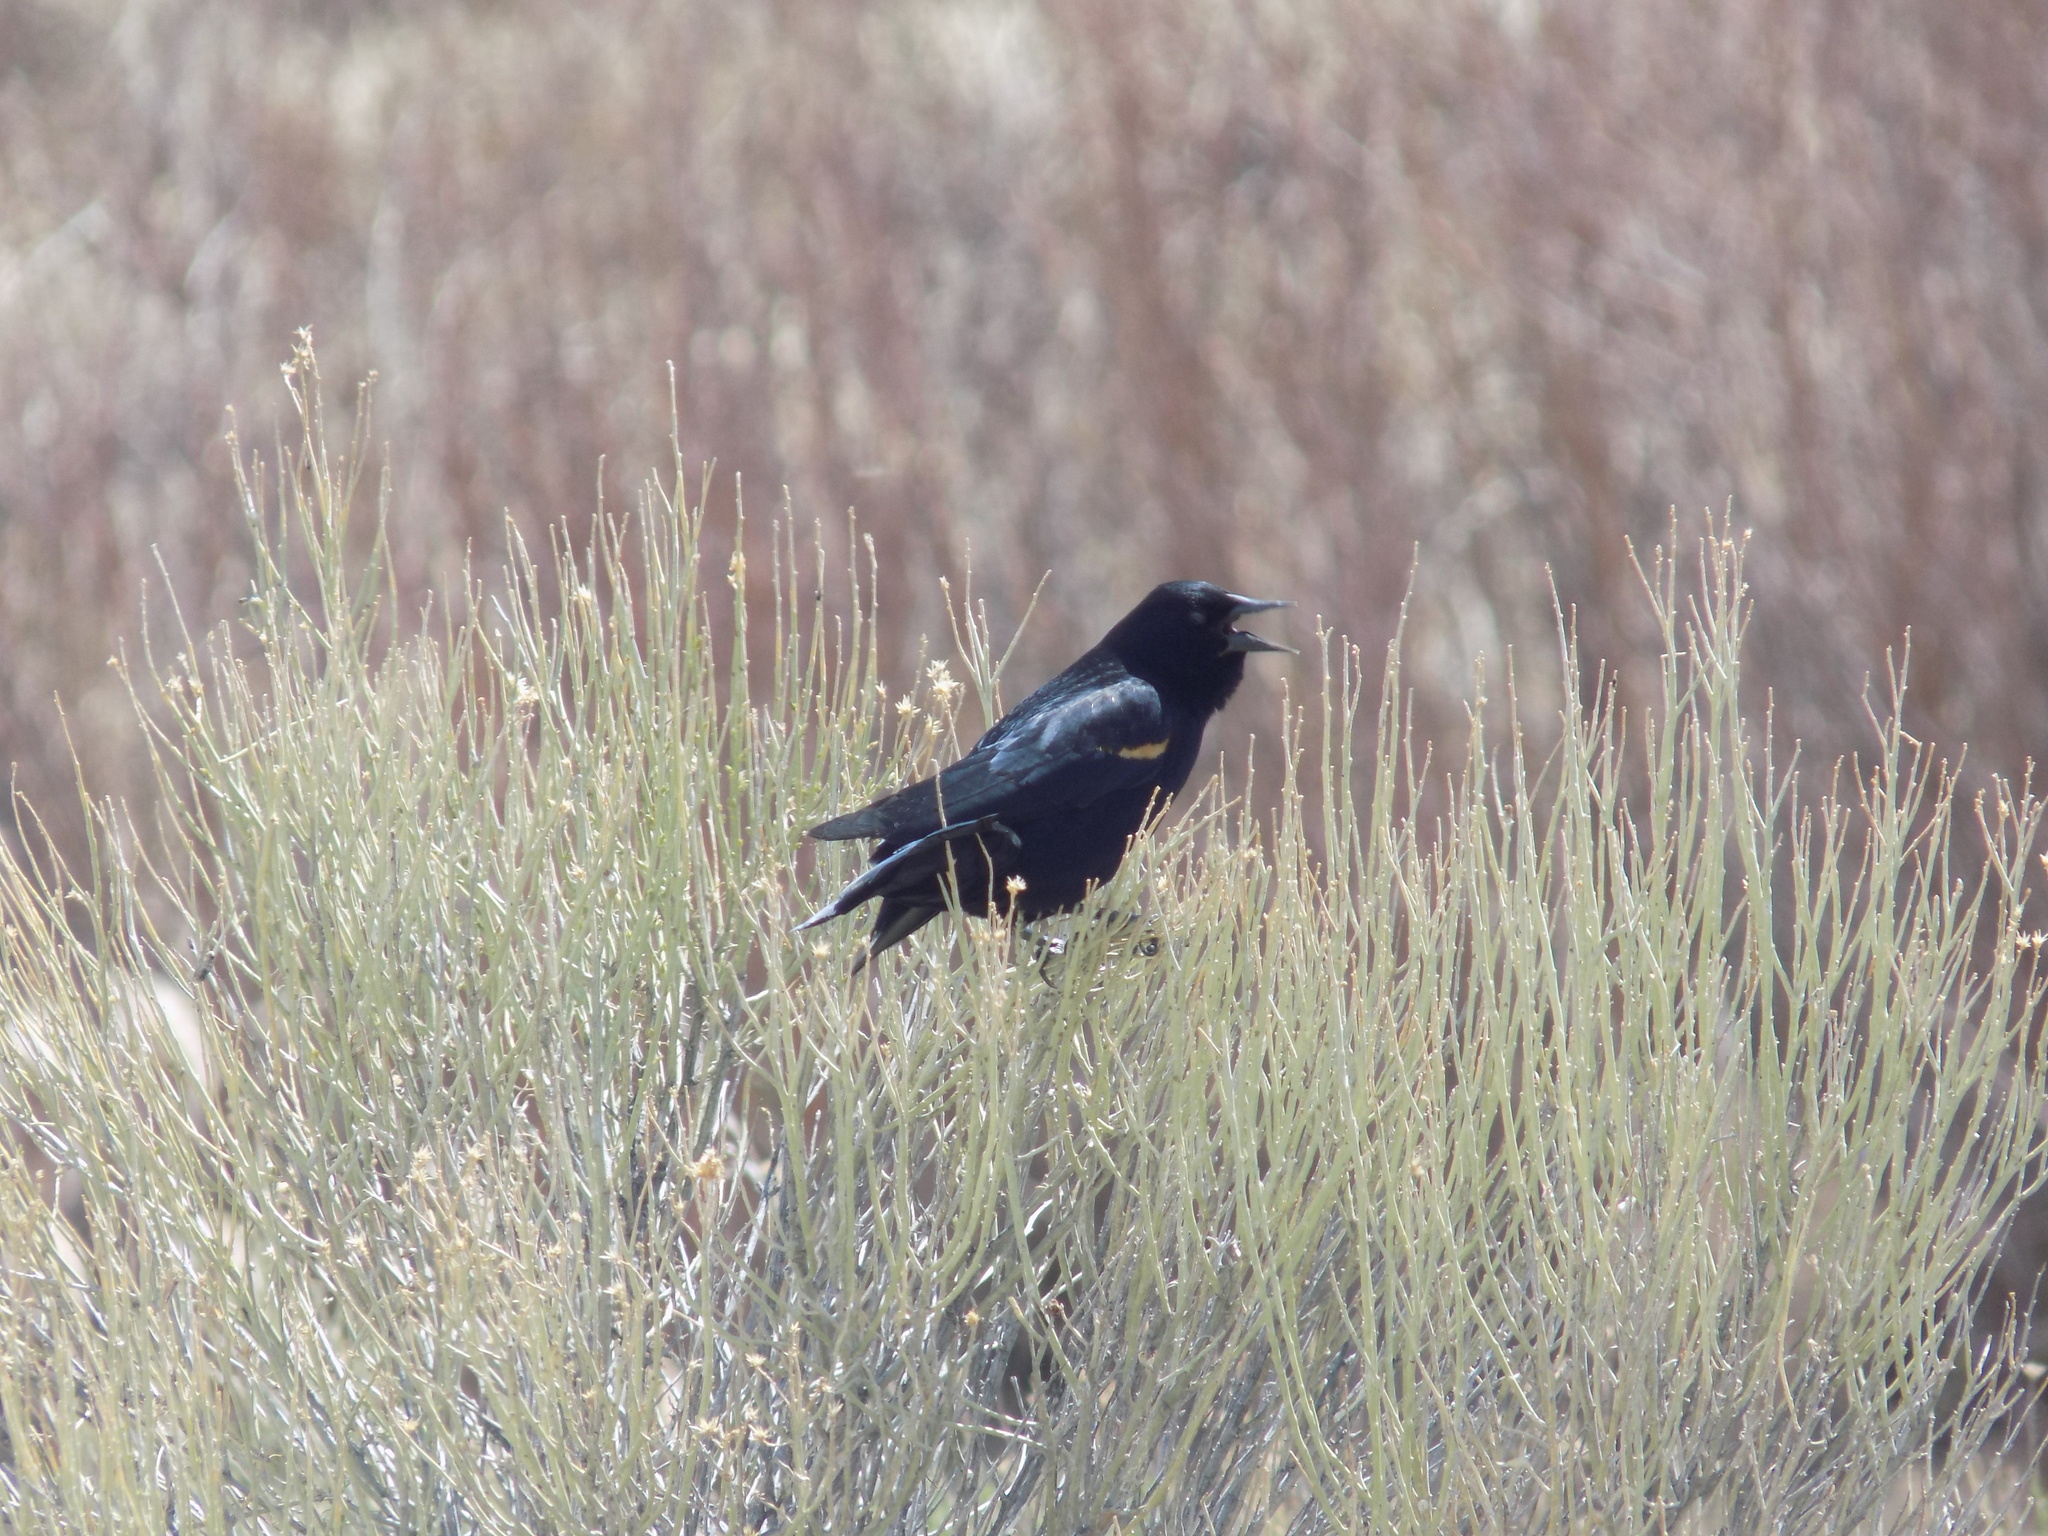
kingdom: Animalia
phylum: Chordata
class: Aves
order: Passeriformes
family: Icteridae
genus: Agelaius
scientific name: Agelaius phoeniceus
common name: Red-winged blackbird
